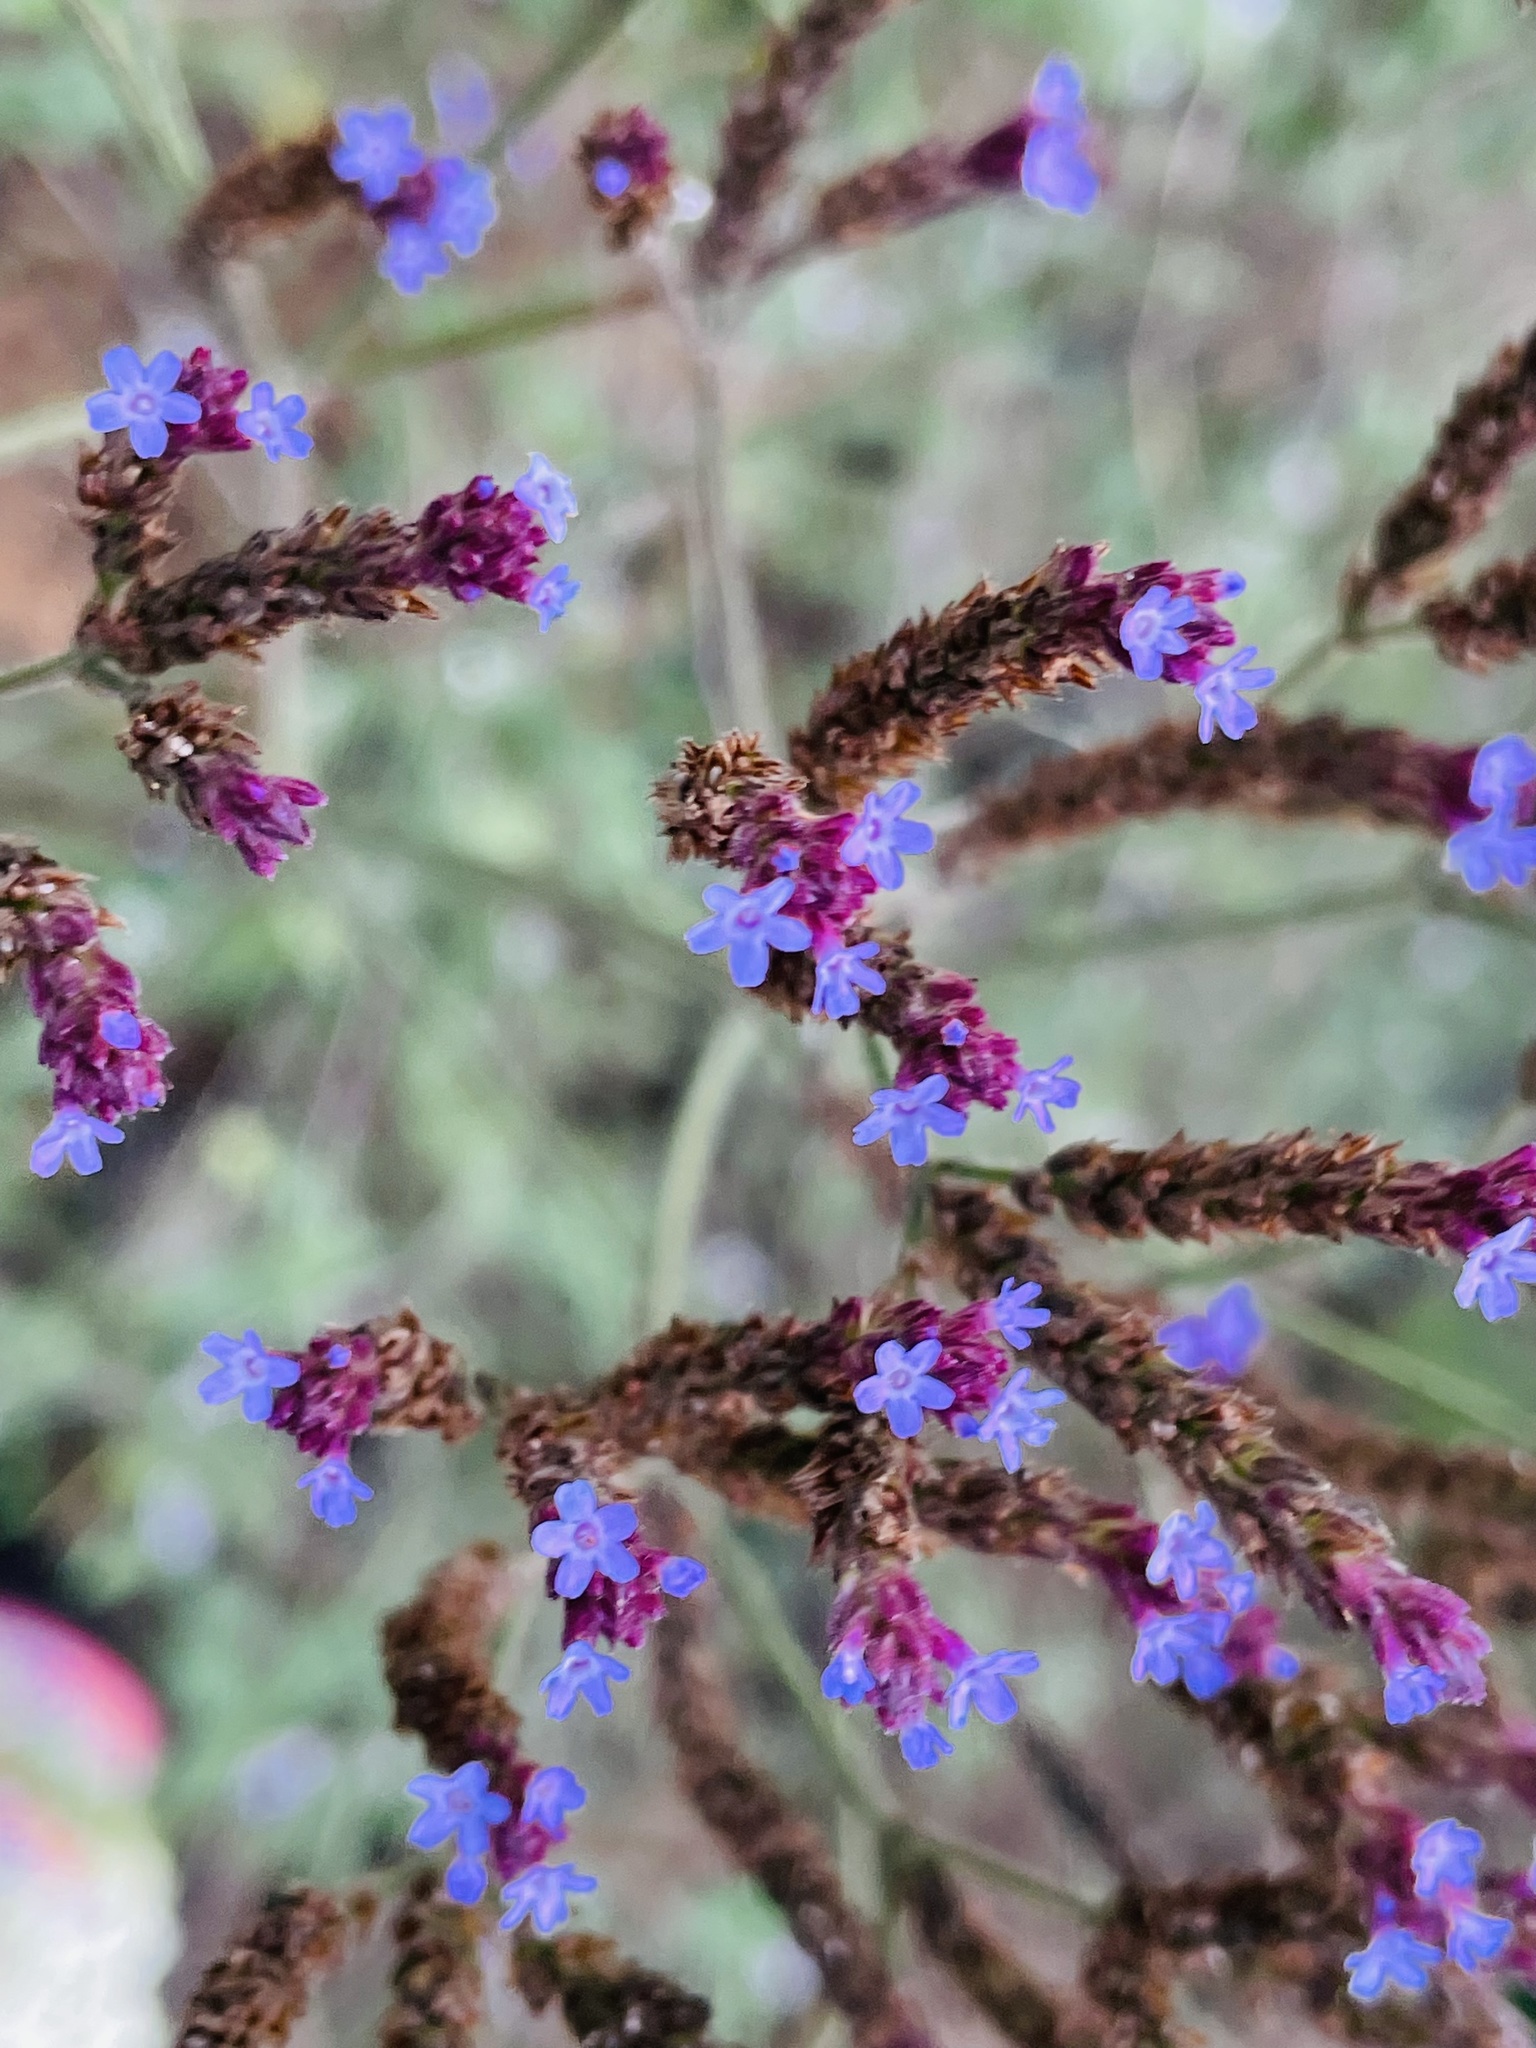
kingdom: Plantae
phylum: Tracheophyta
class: Magnoliopsida
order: Caryophyllales
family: Plumbaginaceae
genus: Limonium
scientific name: Limonium sinuatum
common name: Statice
